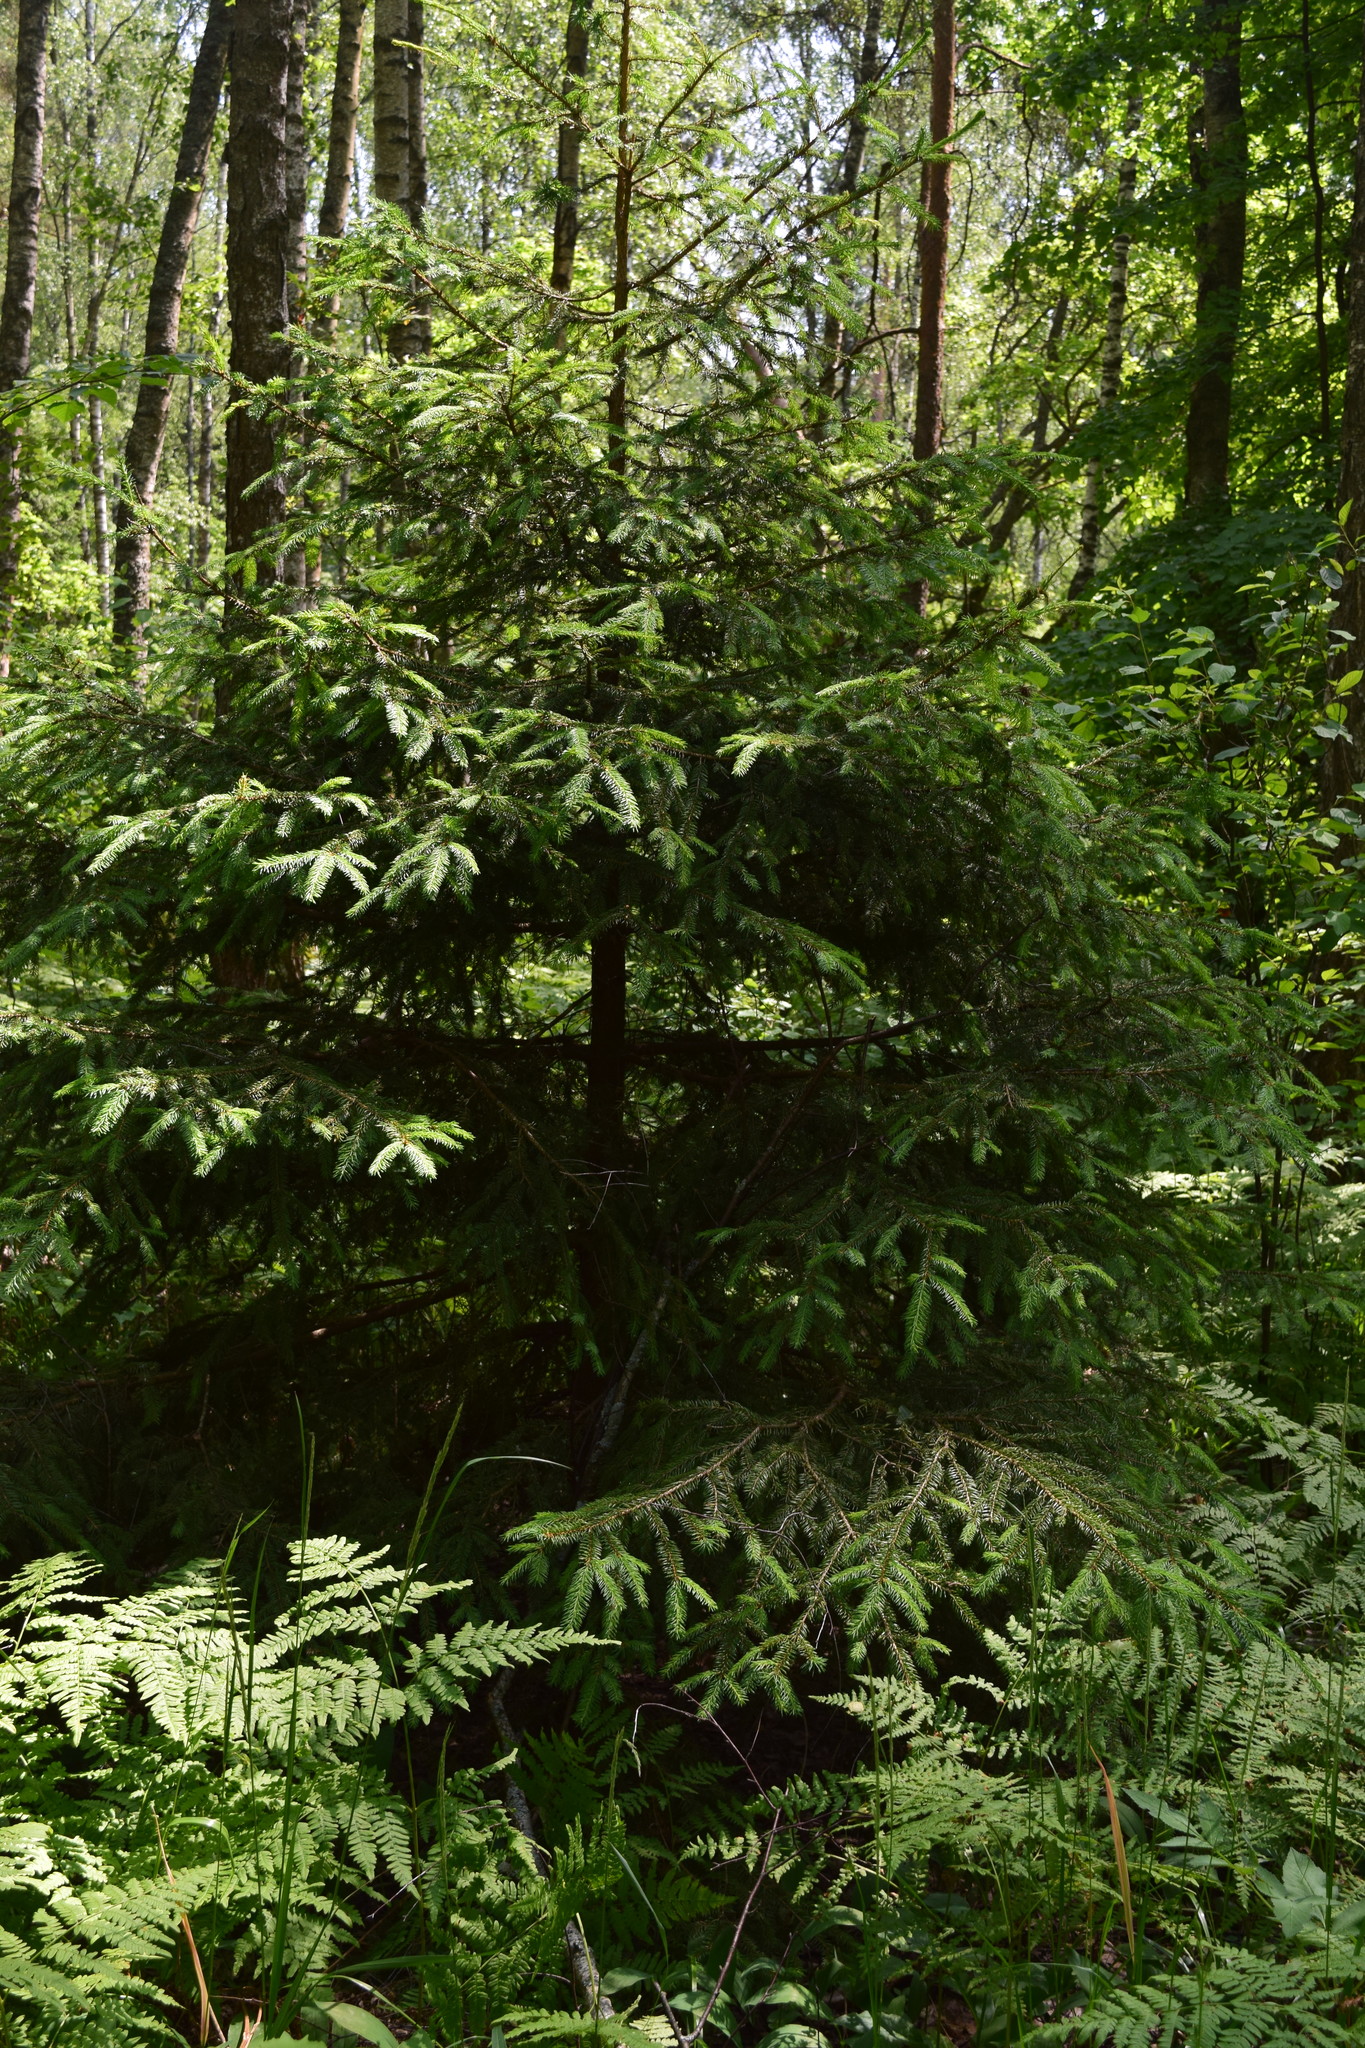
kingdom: Plantae
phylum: Tracheophyta
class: Pinopsida
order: Pinales
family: Pinaceae
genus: Picea
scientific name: Picea abies
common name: Norway spruce
